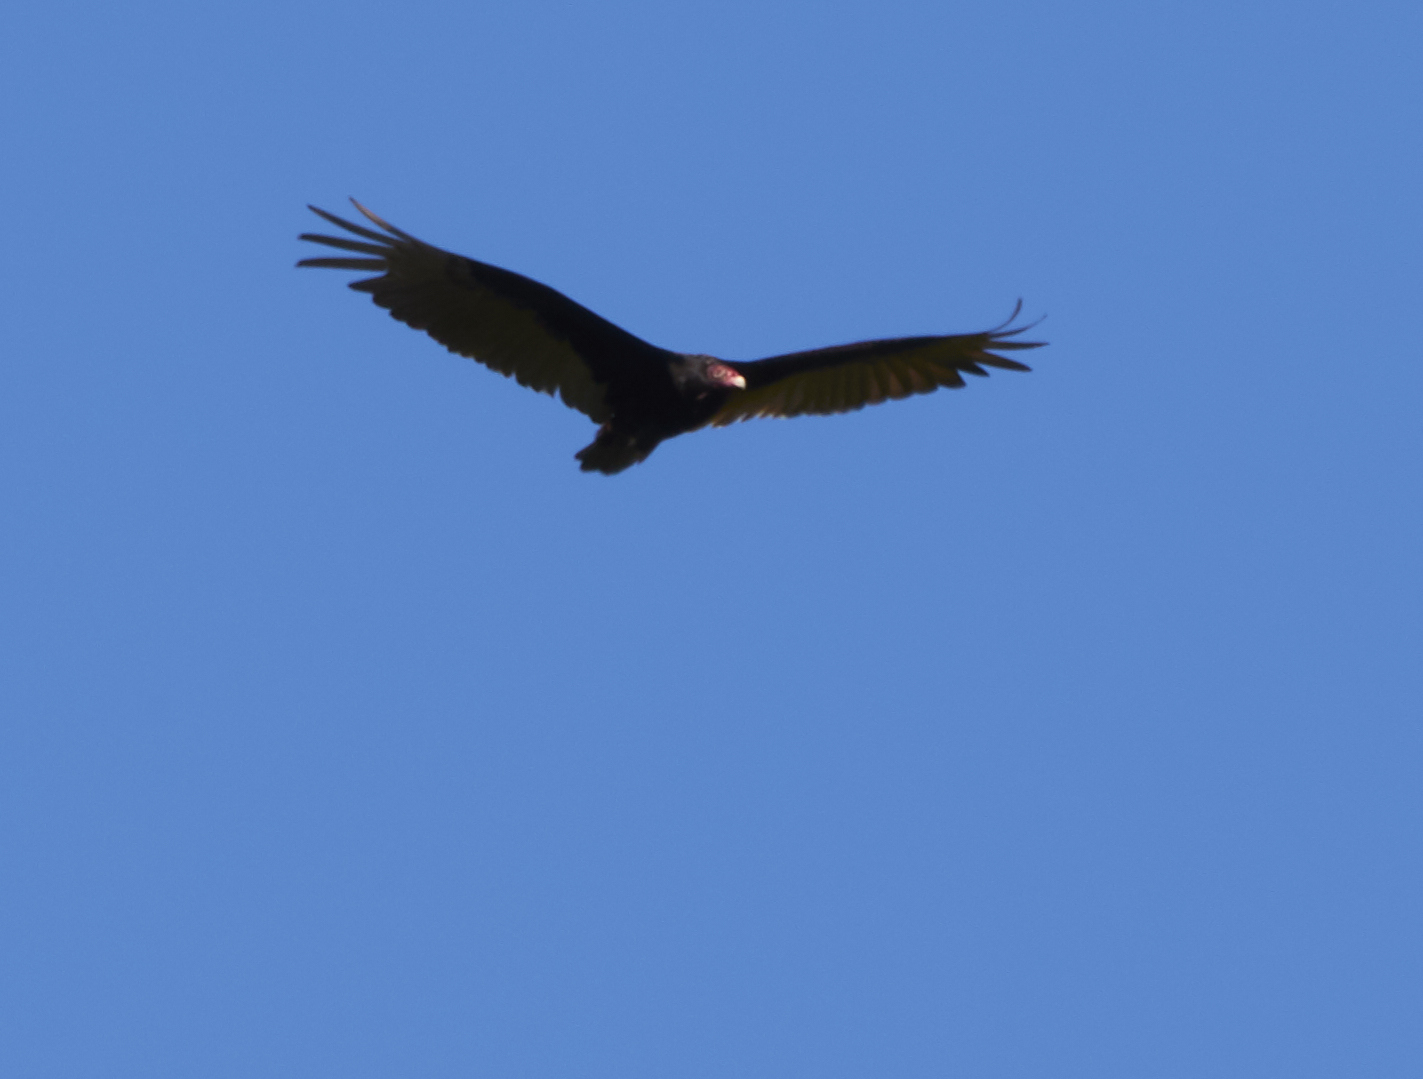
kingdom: Animalia
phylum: Chordata
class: Aves
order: Accipitriformes
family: Cathartidae
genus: Cathartes
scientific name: Cathartes aura
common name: Turkey vulture
